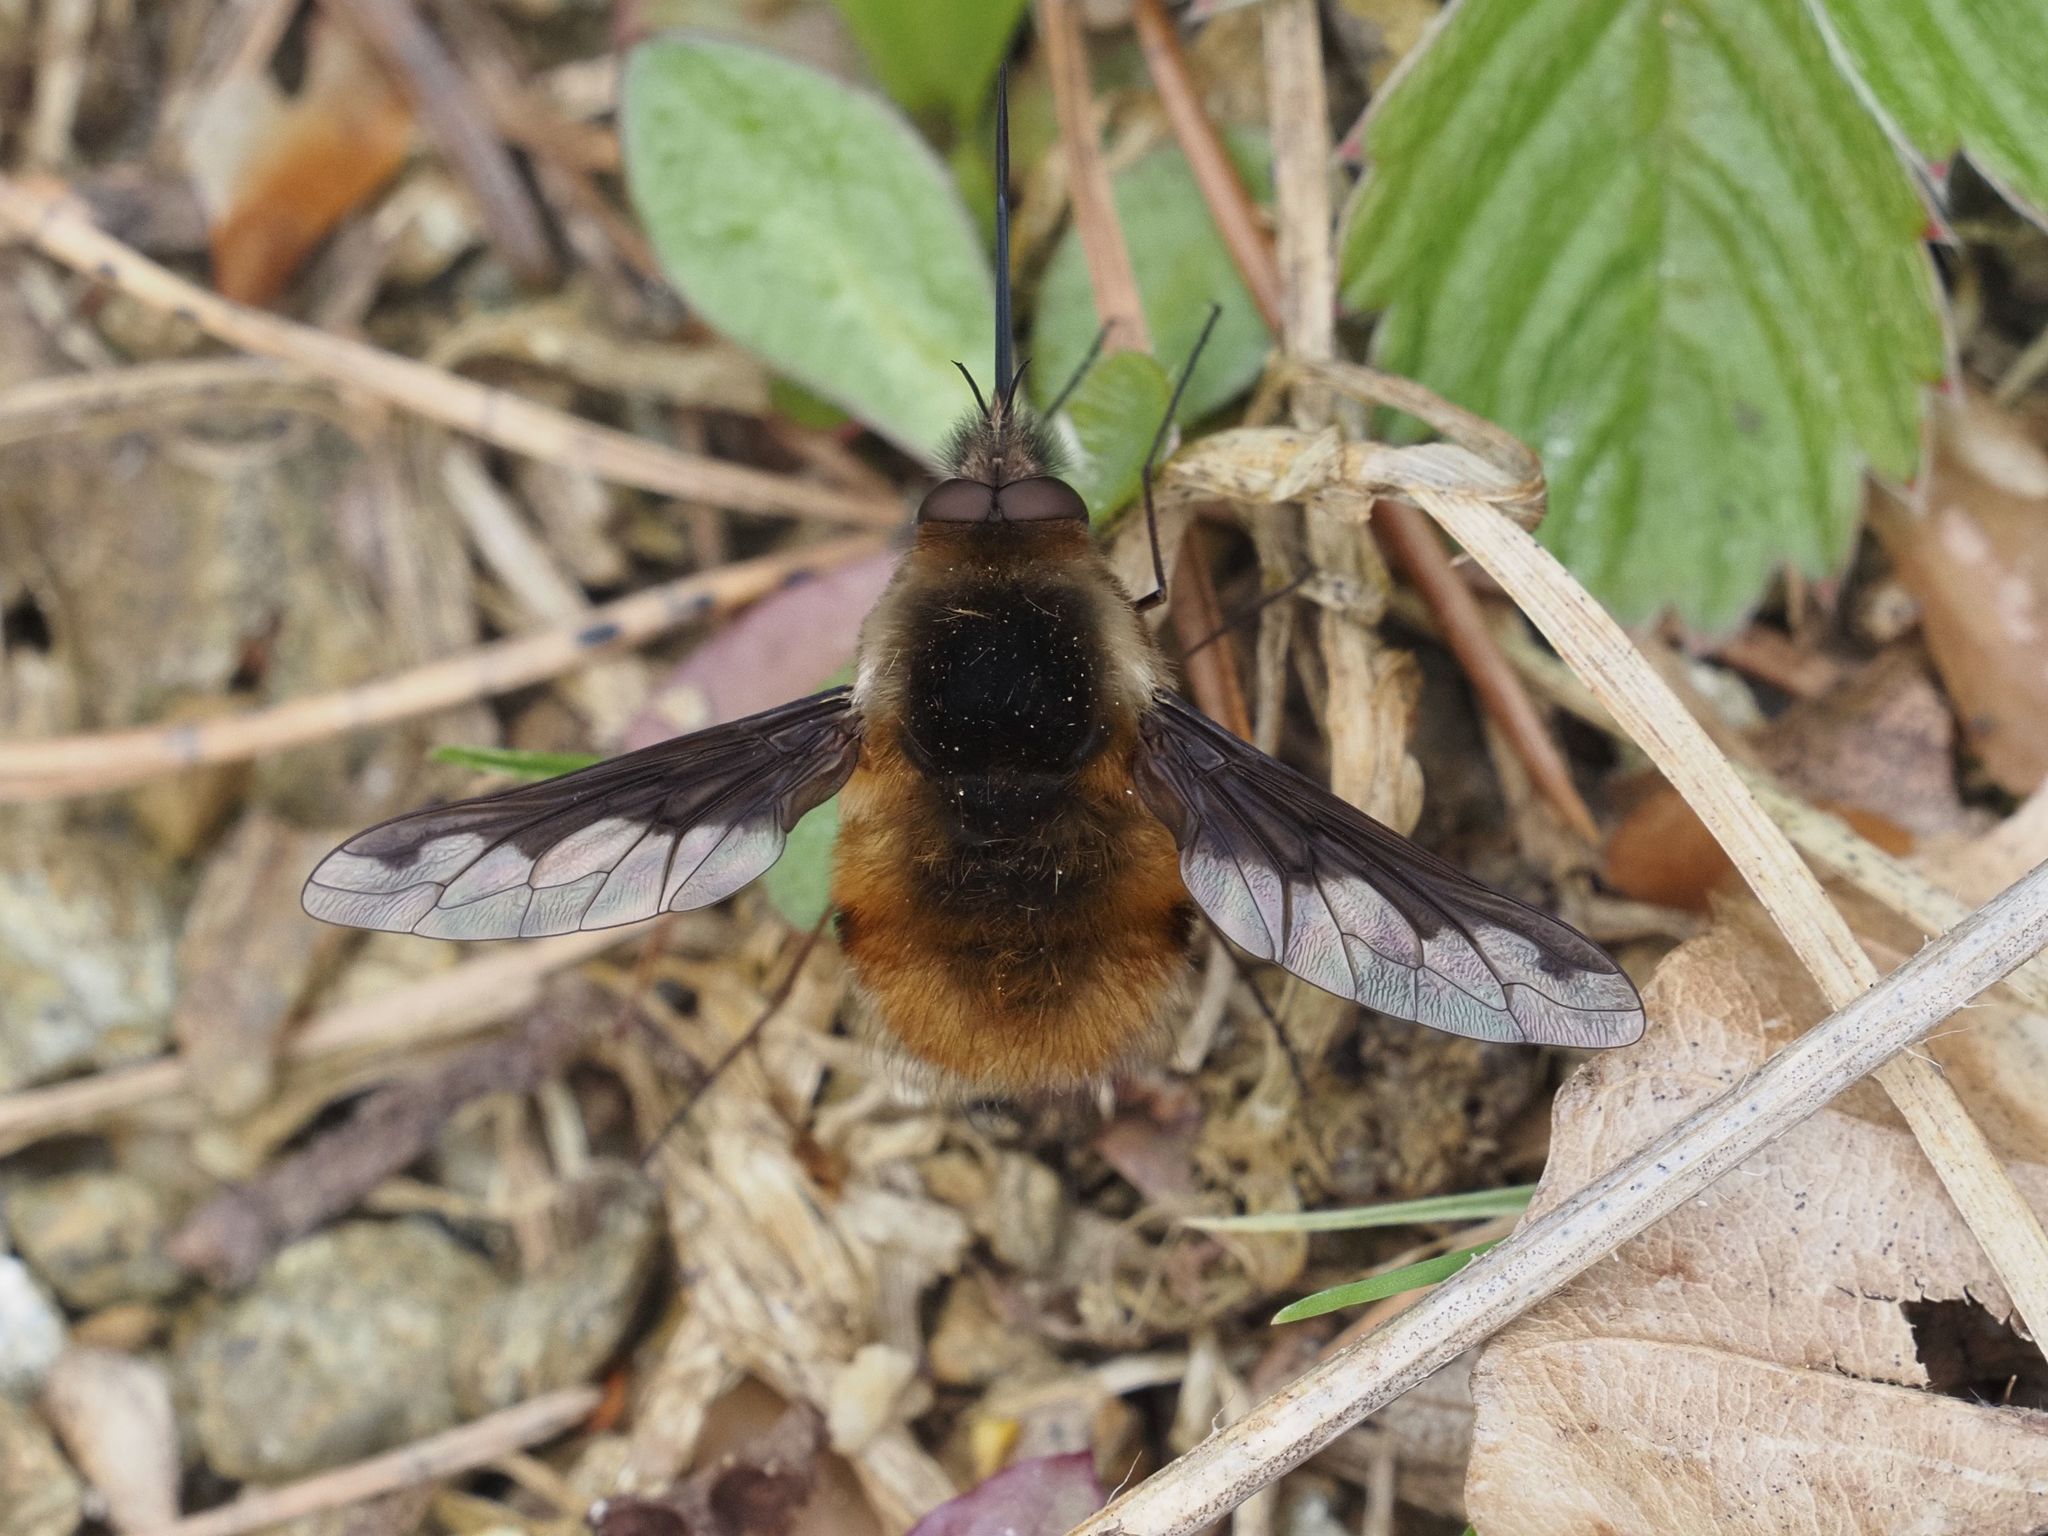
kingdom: Animalia
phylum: Arthropoda
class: Insecta
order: Diptera
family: Bombyliidae
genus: Bombylius
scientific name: Bombylius major
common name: Bee fly
